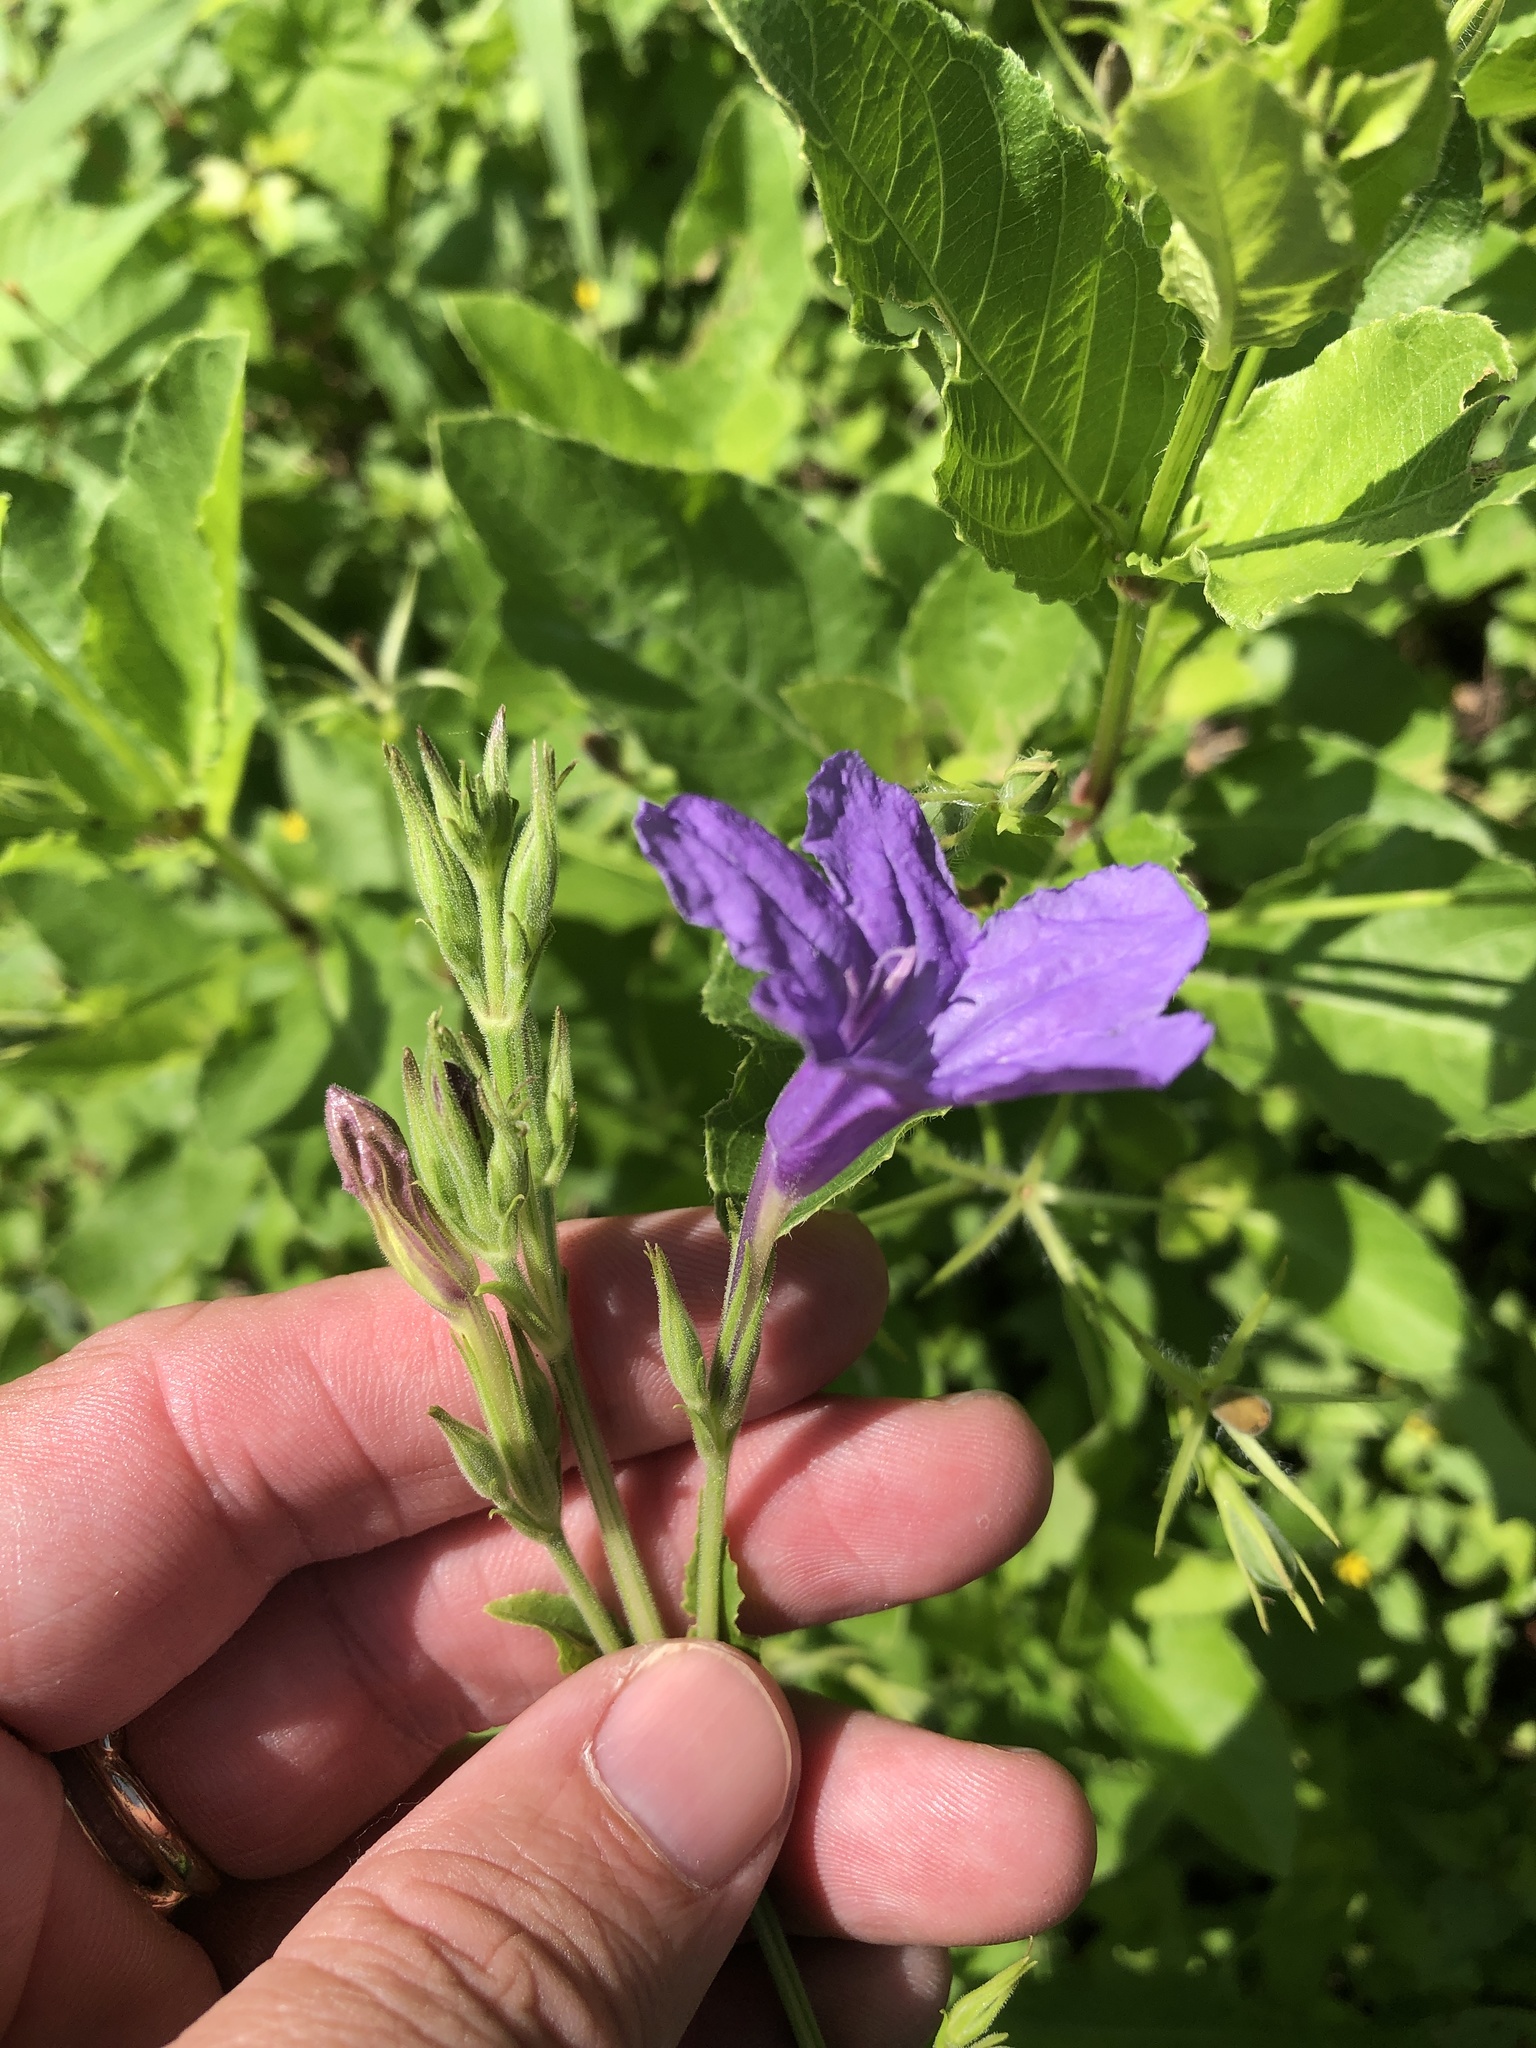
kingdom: Plantae
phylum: Tracheophyta
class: Magnoliopsida
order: Lamiales
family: Acanthaceae
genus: Ruellia
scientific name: Ruellia ciliatiflora
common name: Hairyflower wild petunia
